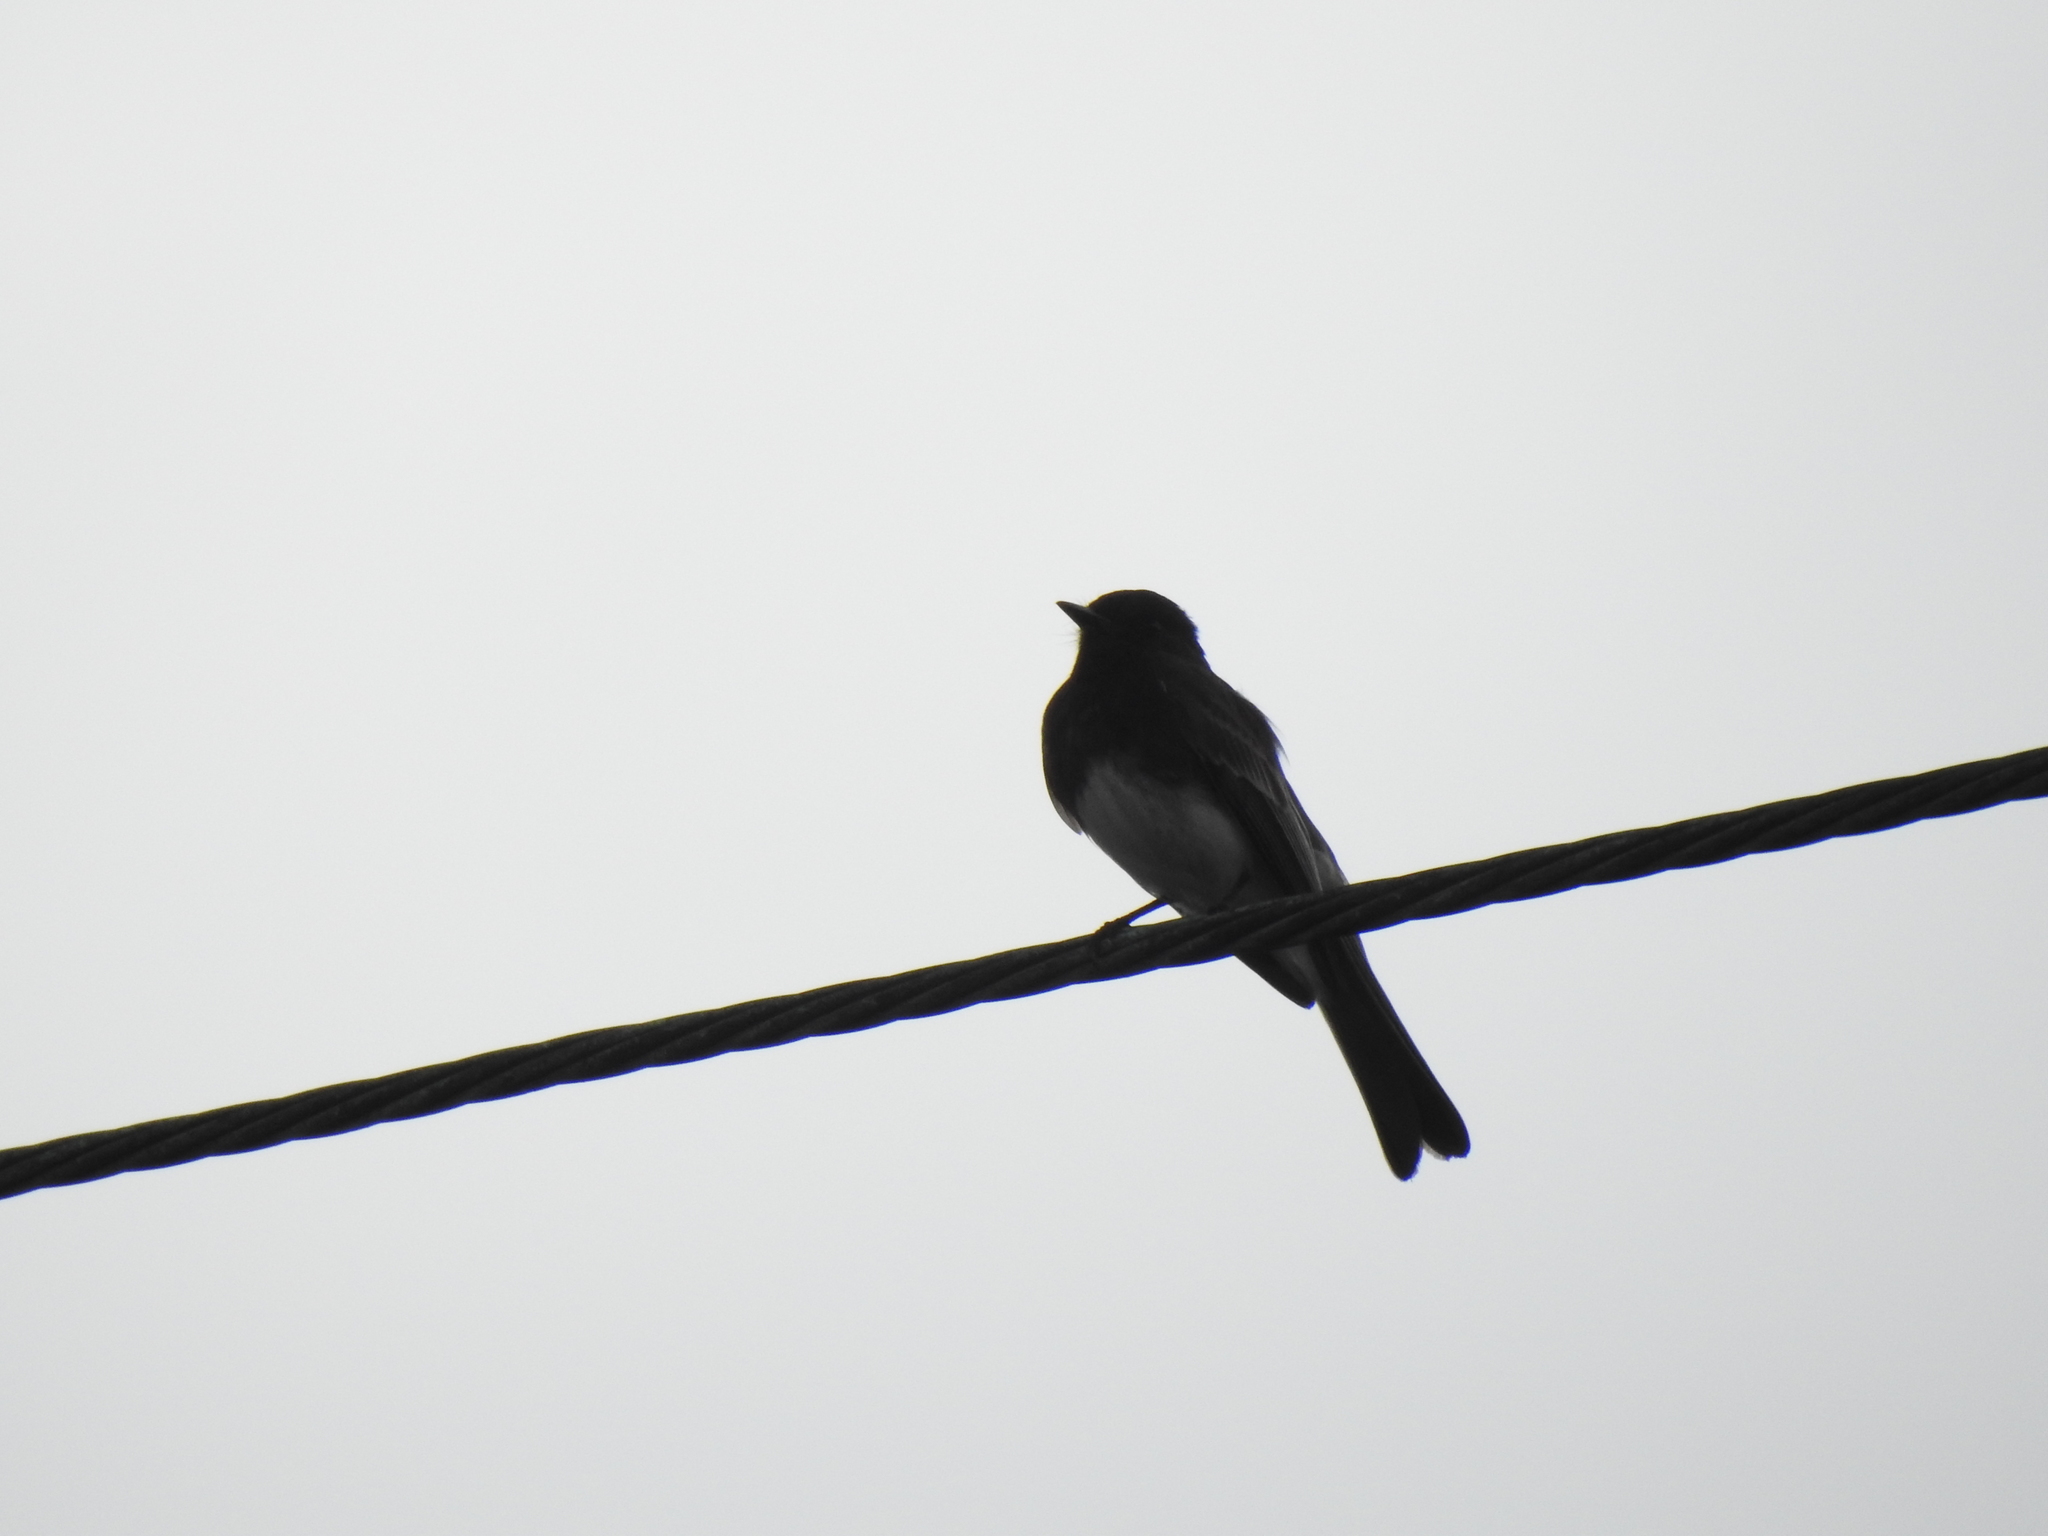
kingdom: Animalia
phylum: Chordata
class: Aves
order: Passeriformes
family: Tyrannidae
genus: Sayornis
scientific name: Sayornis nigricans
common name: Black phoebe
